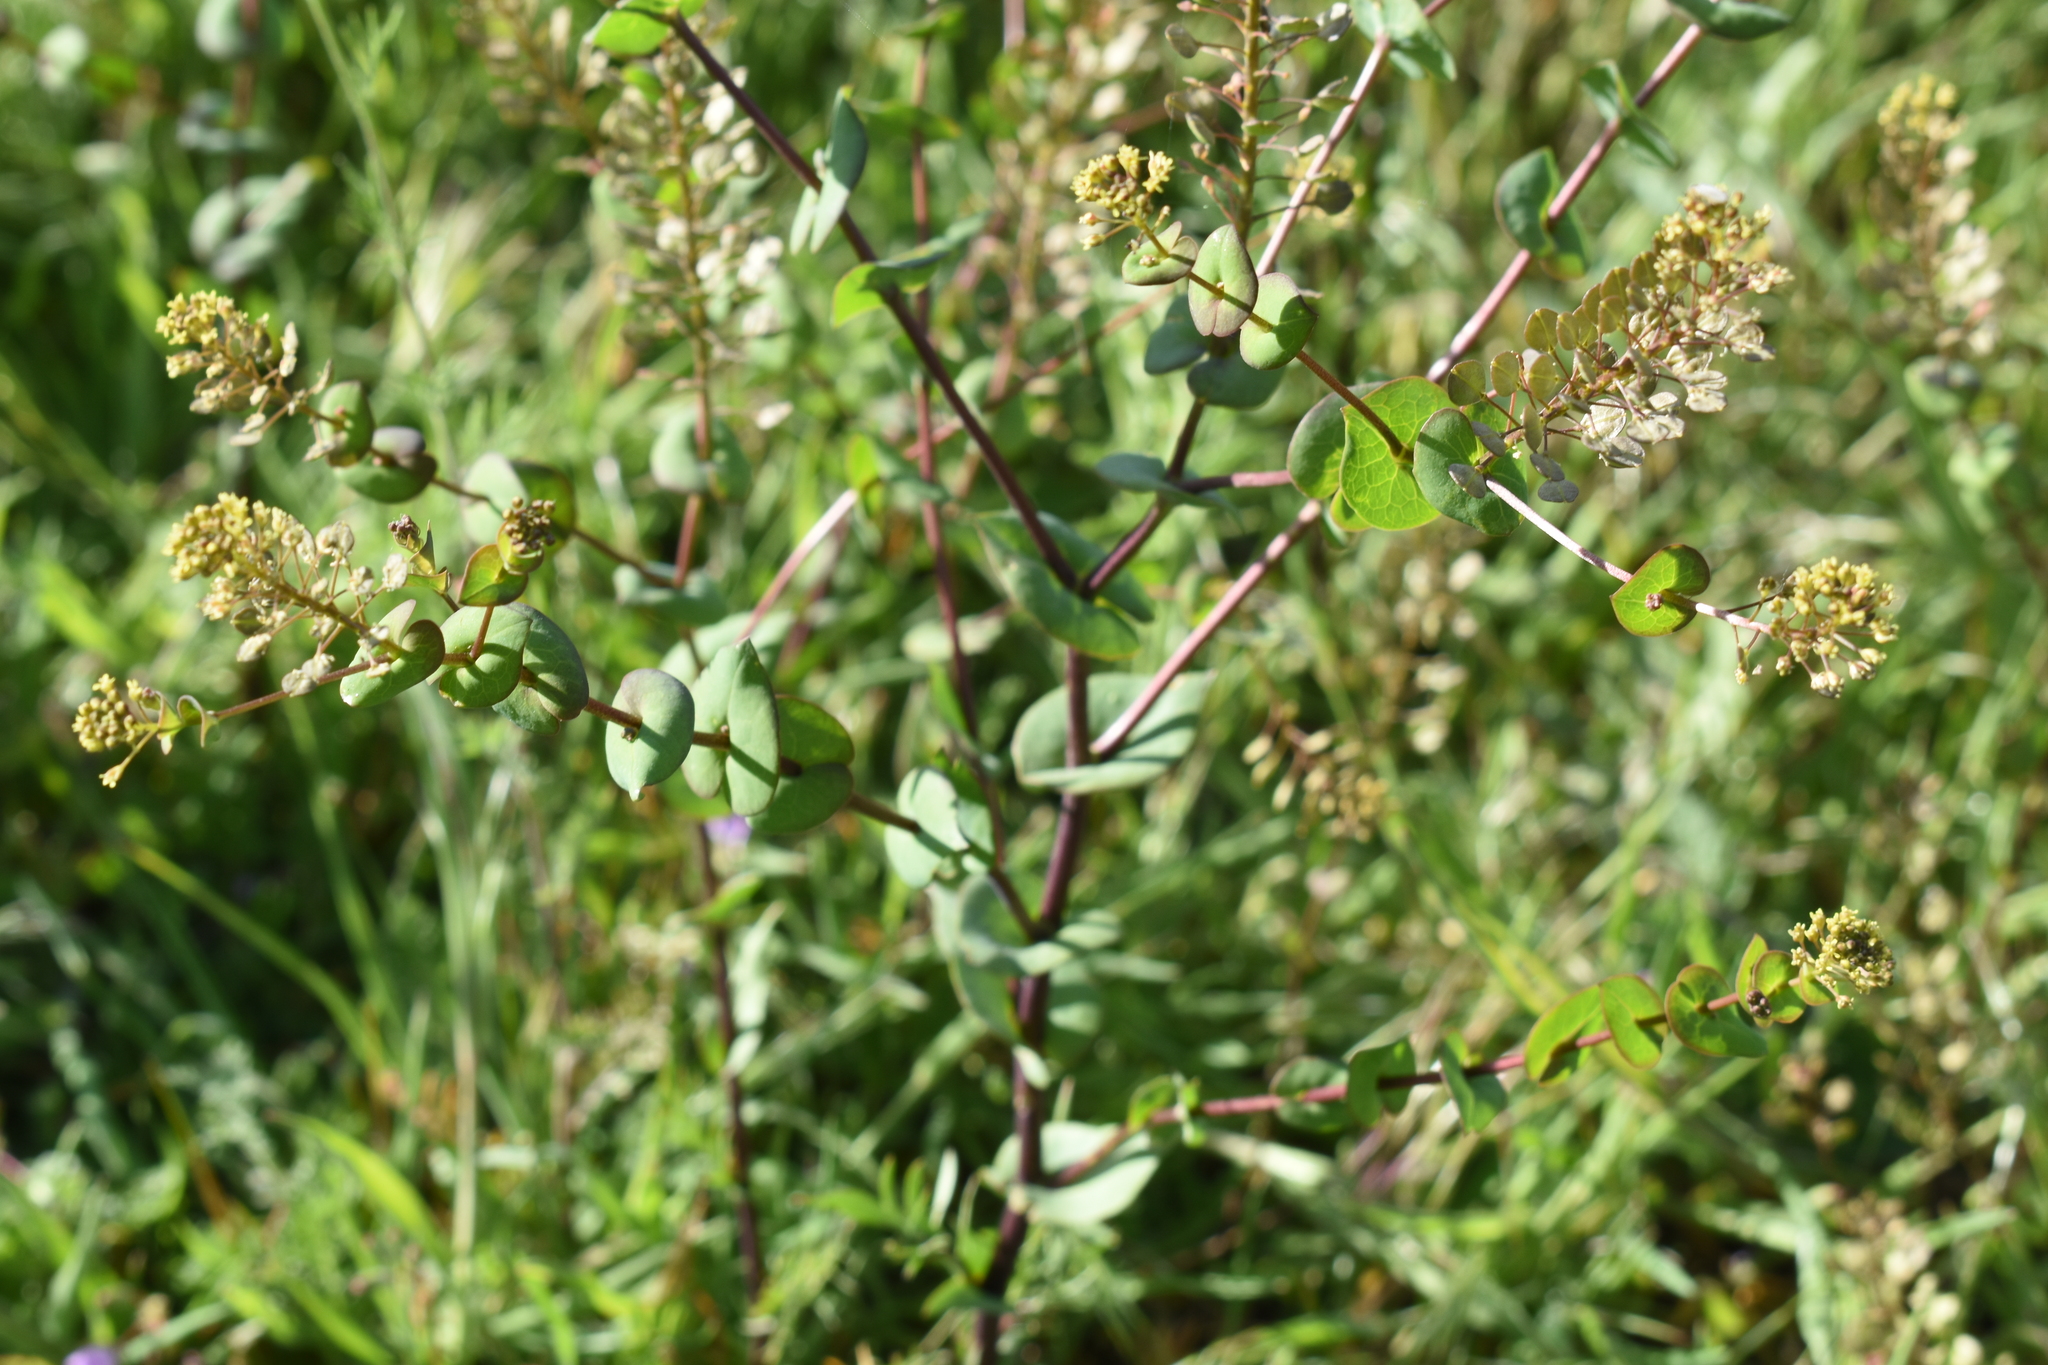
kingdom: Plantae
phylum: Tracheophyta
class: Magnoliopsida
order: Brassicales
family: Brassicaceae
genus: Lepidium
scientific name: Lepidium perfoliatum
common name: Perfoliate pepperwort
